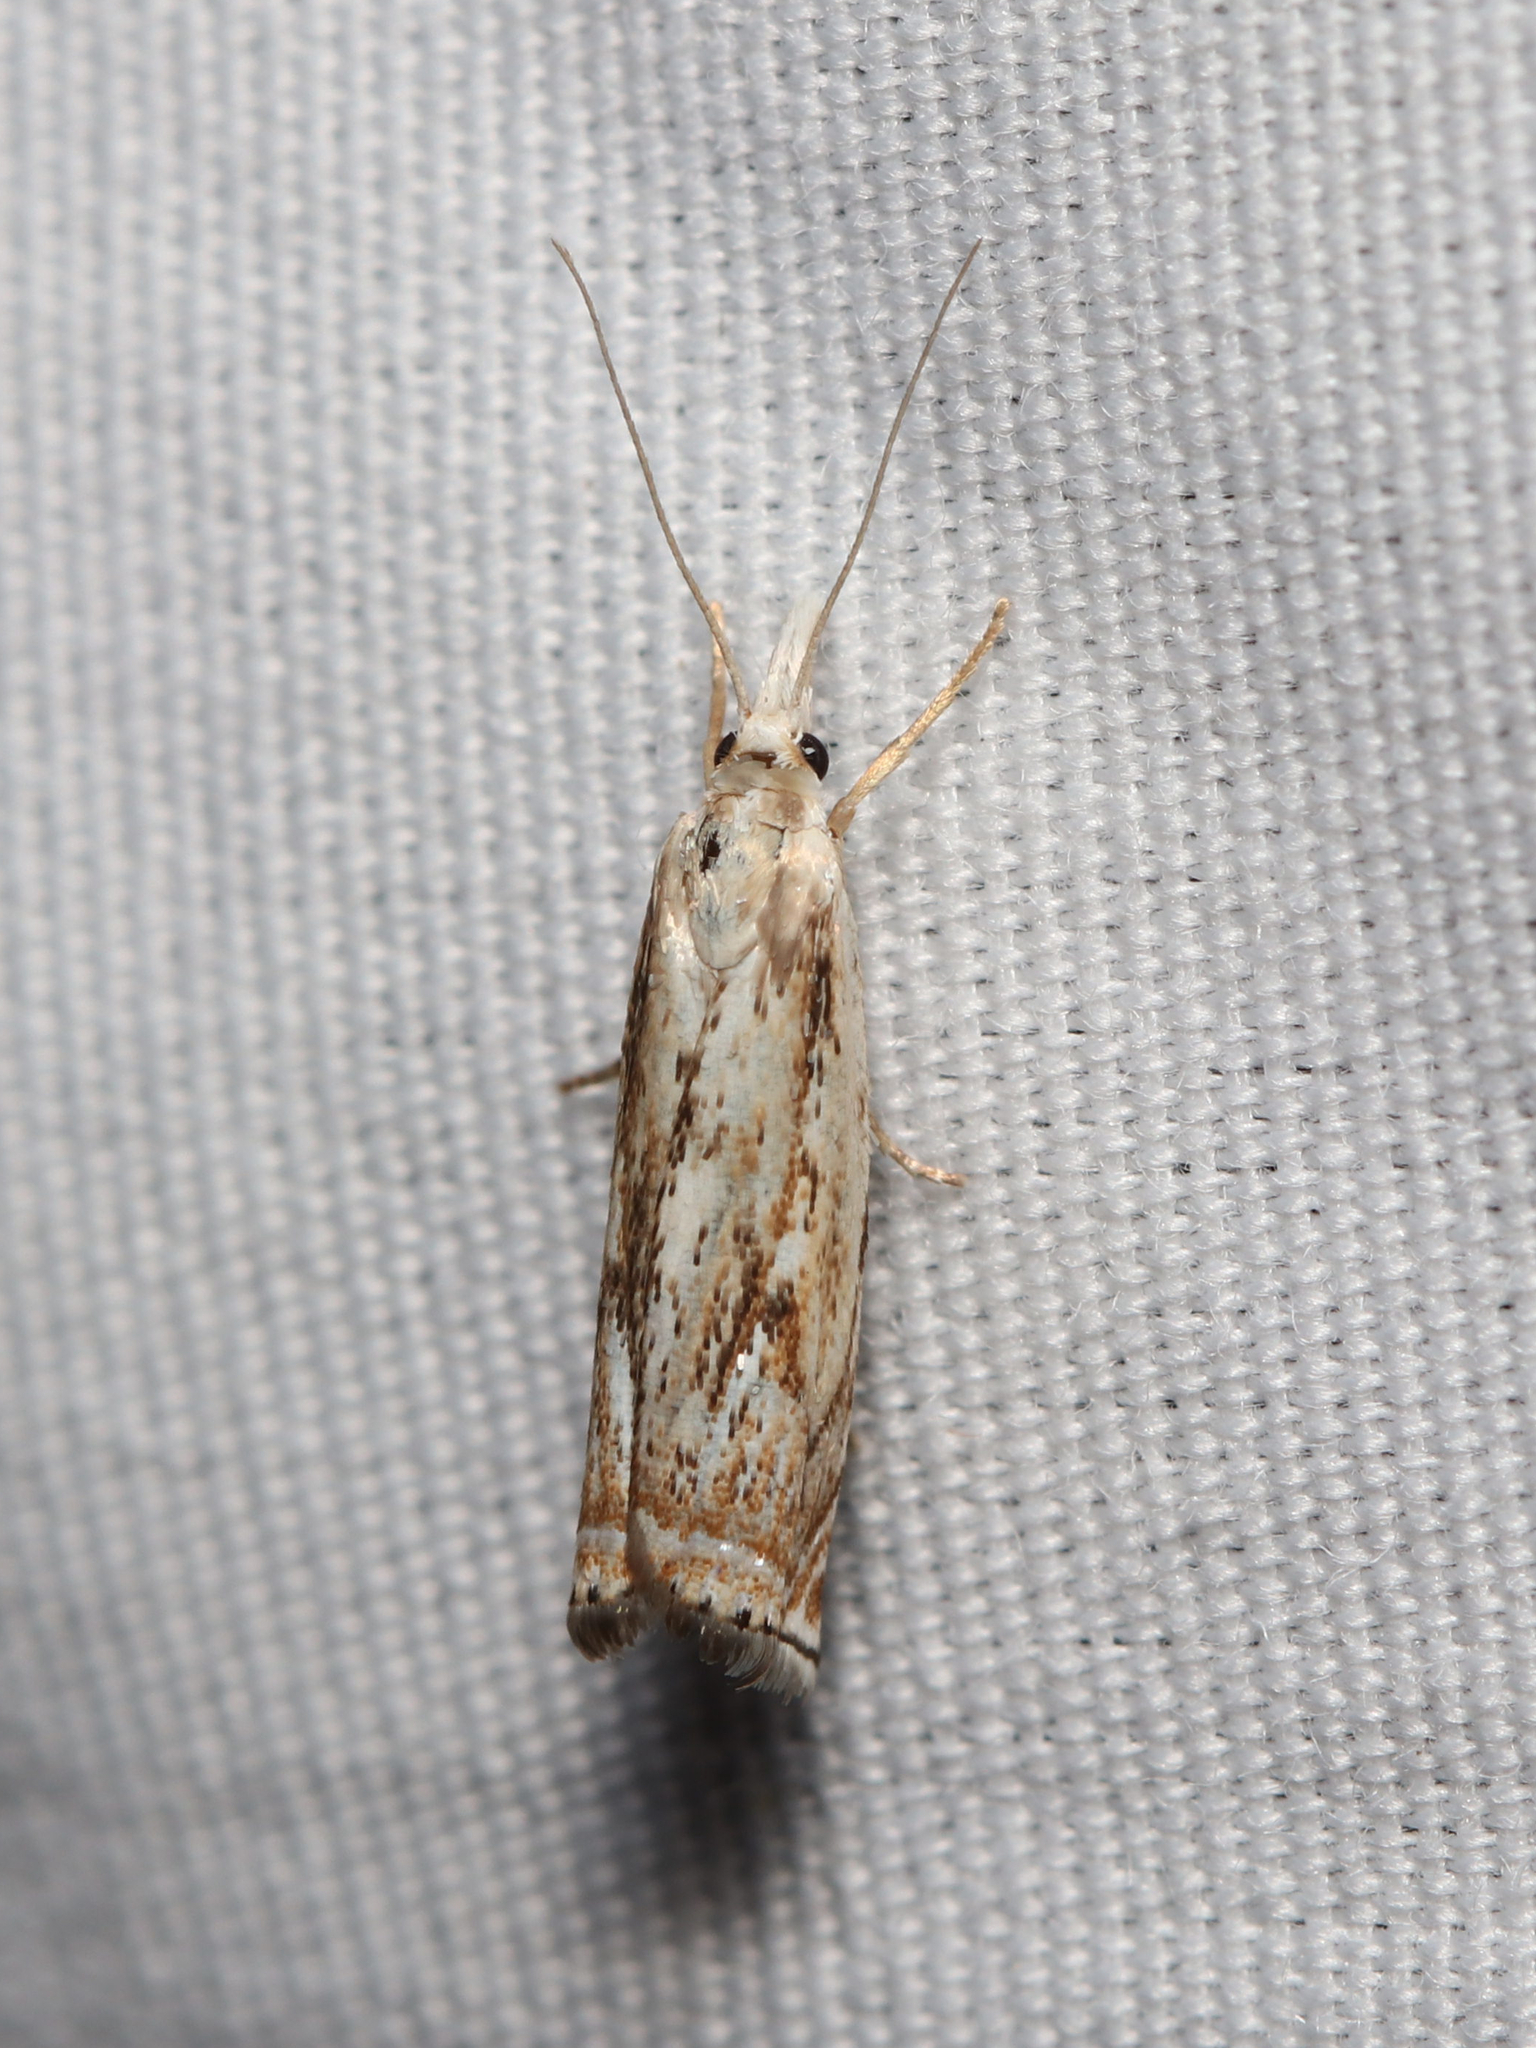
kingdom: Animalia
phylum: Arthropoda
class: Insecta
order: Lepidoptera
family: Crambidae
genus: Crambus
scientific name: Crambus albellus
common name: Small white grass-veneer
